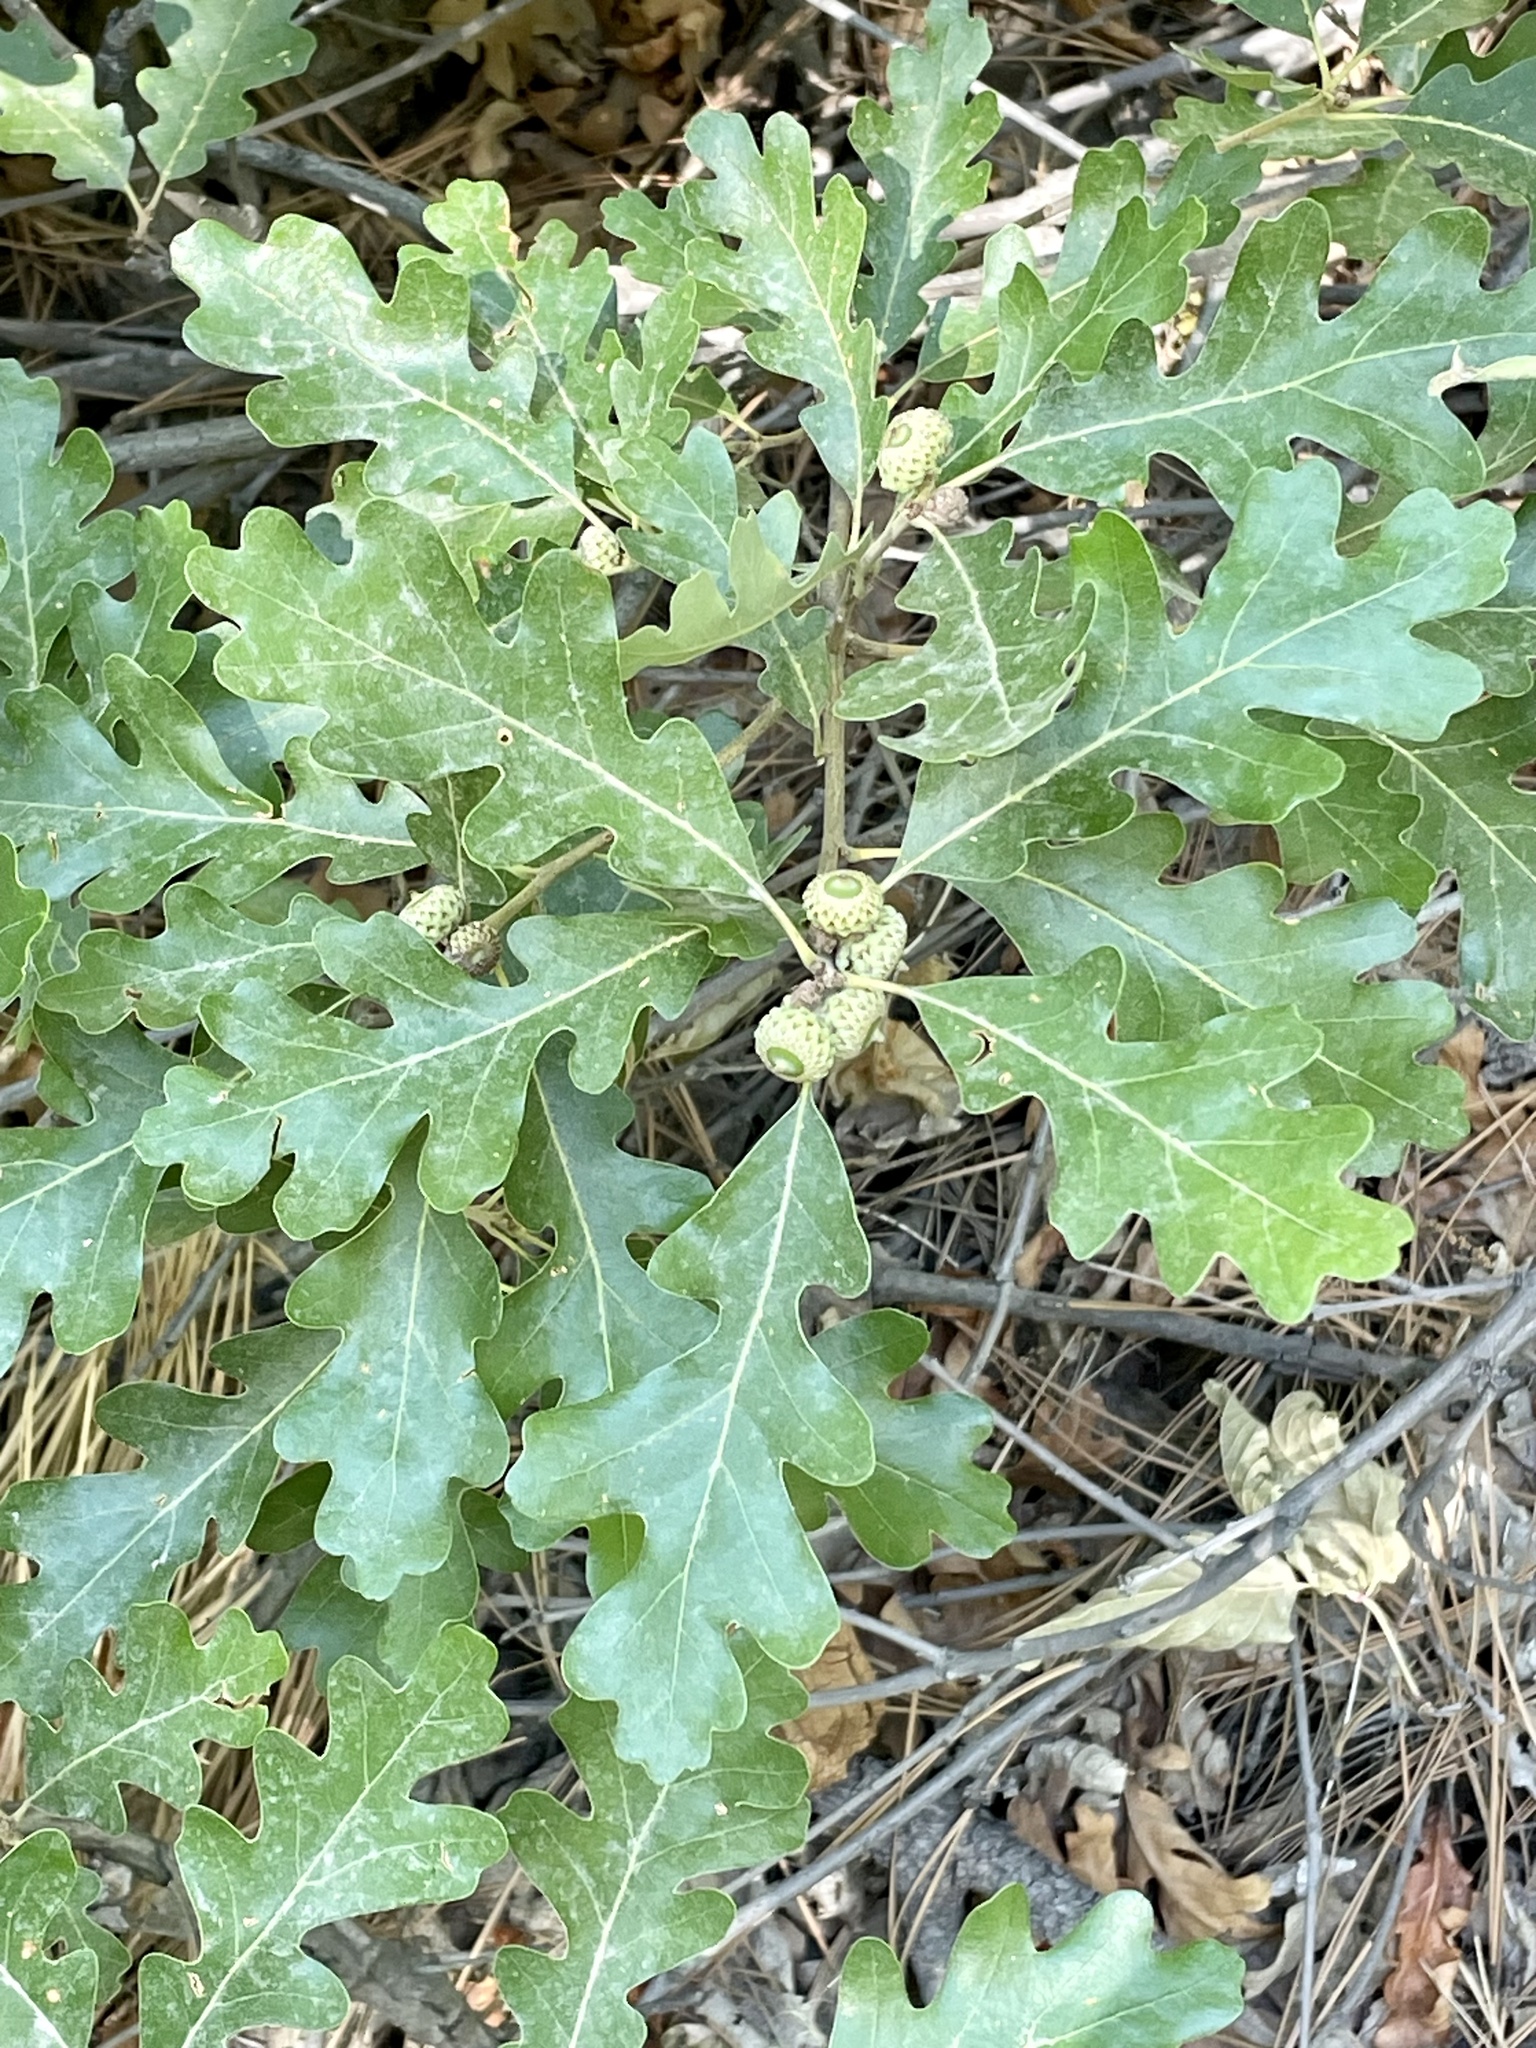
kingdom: Plantae
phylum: Tracheophyta
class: Magnoliopsida
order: Fagales
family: Fagaceae
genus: Quercus
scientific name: Quercus gambelii
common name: Gambel oak
